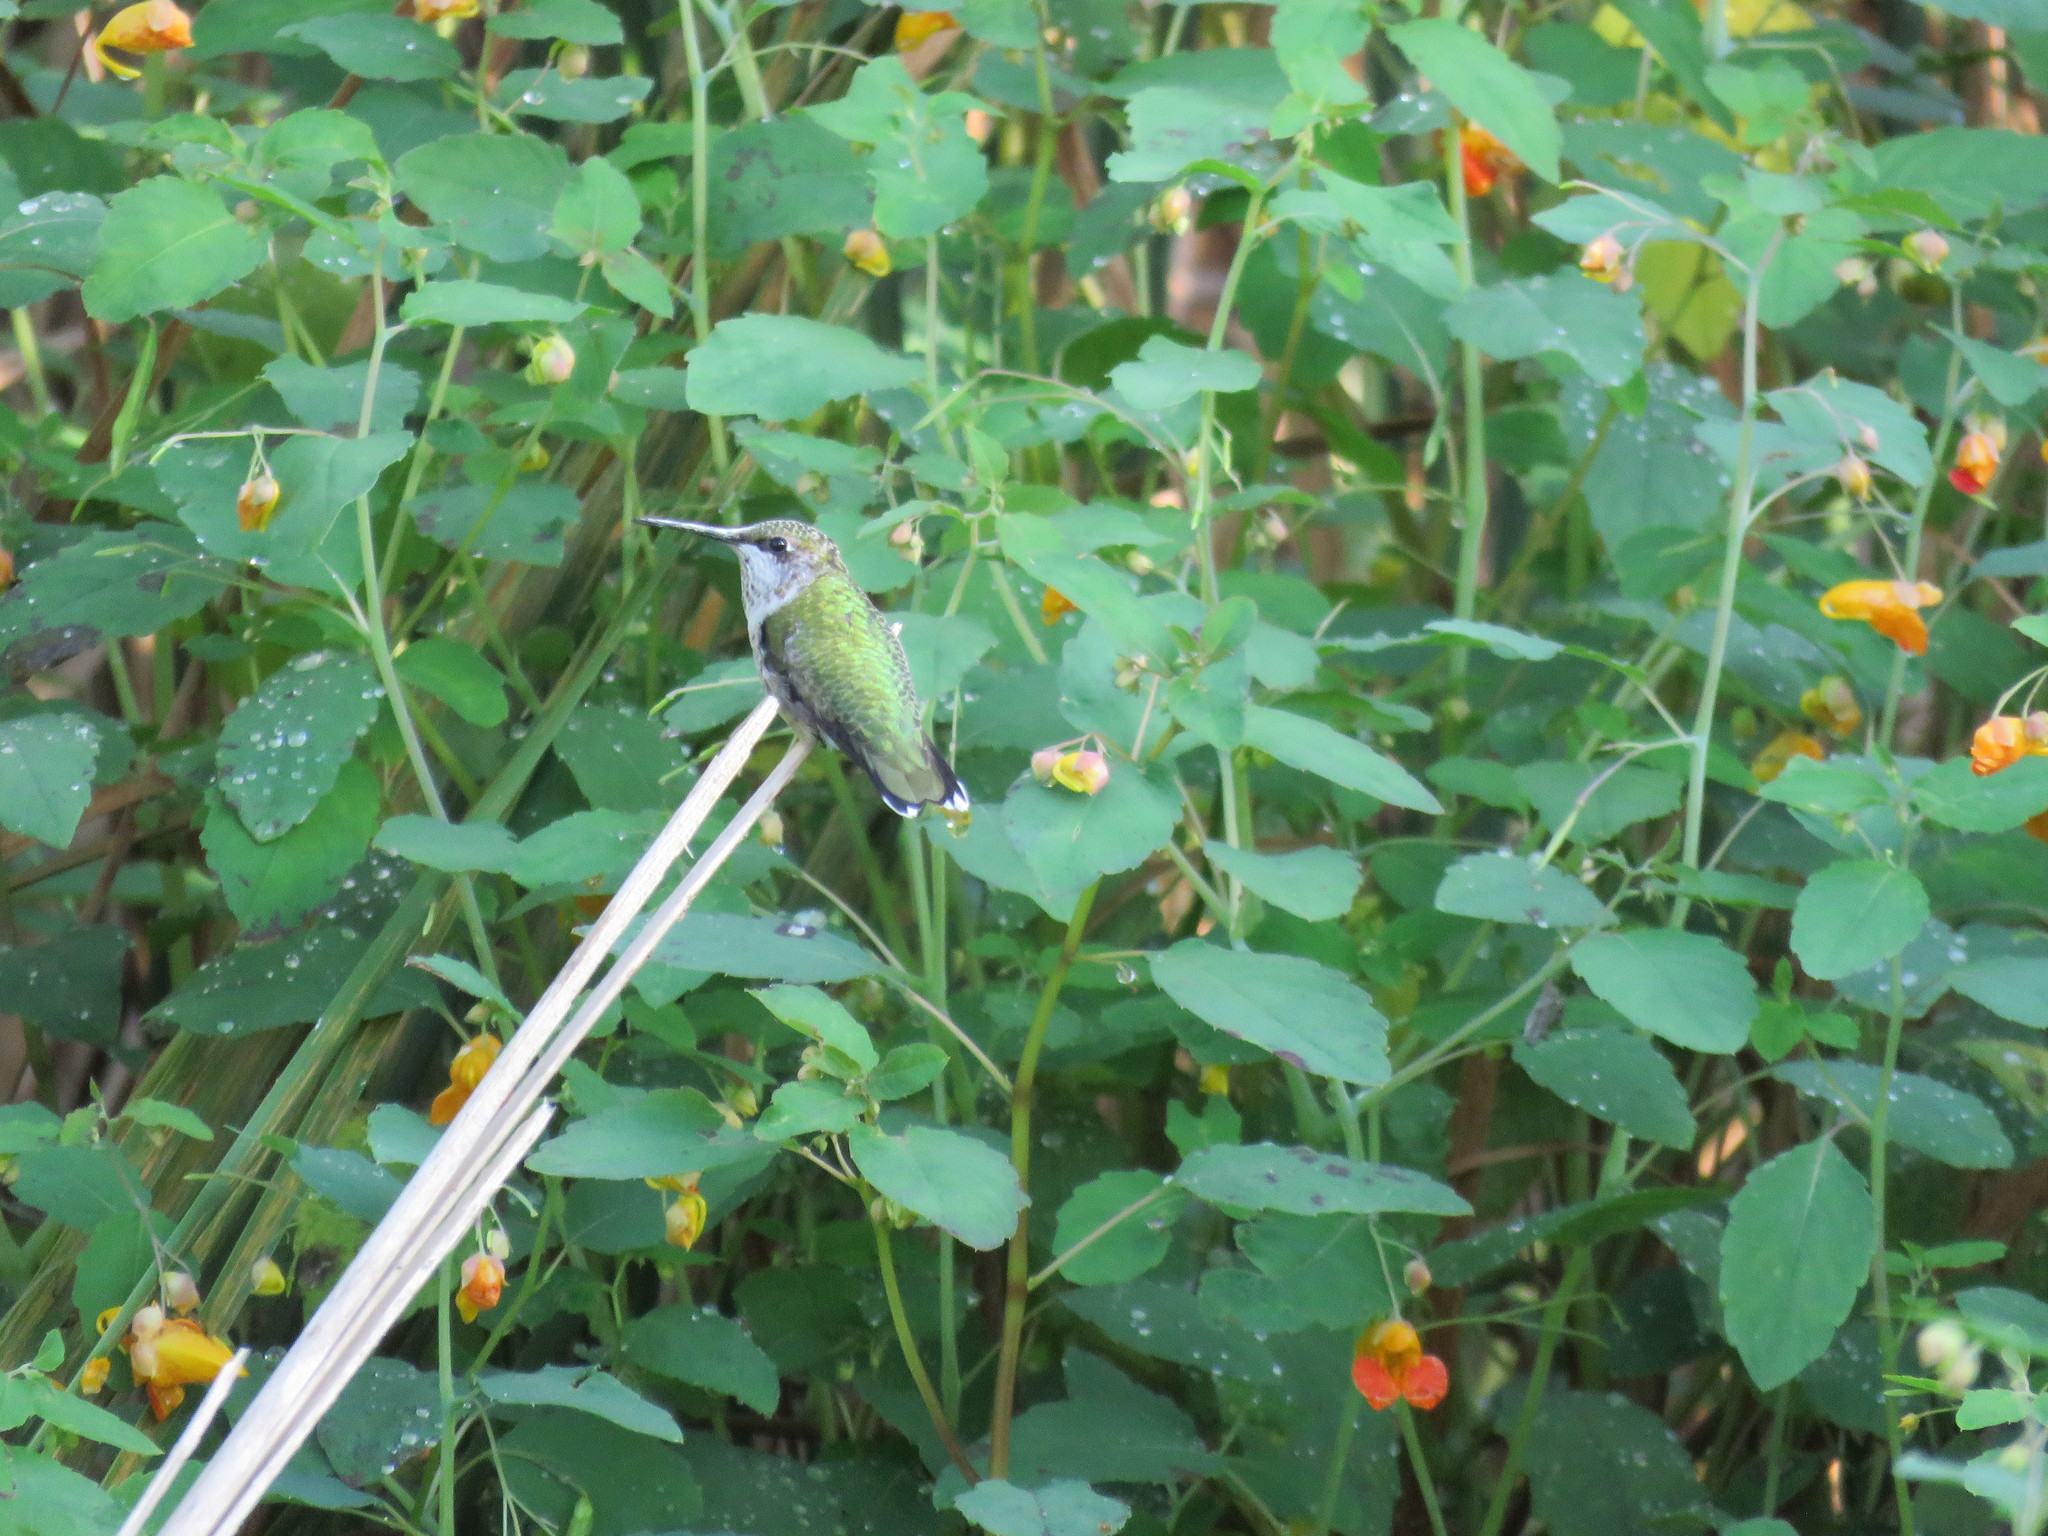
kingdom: Animalia
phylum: Chordata
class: Aves
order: Apodiformes
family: Trochilidae
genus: Archilochus
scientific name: Archilochus colubris
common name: Ruby-throated hummingbird
